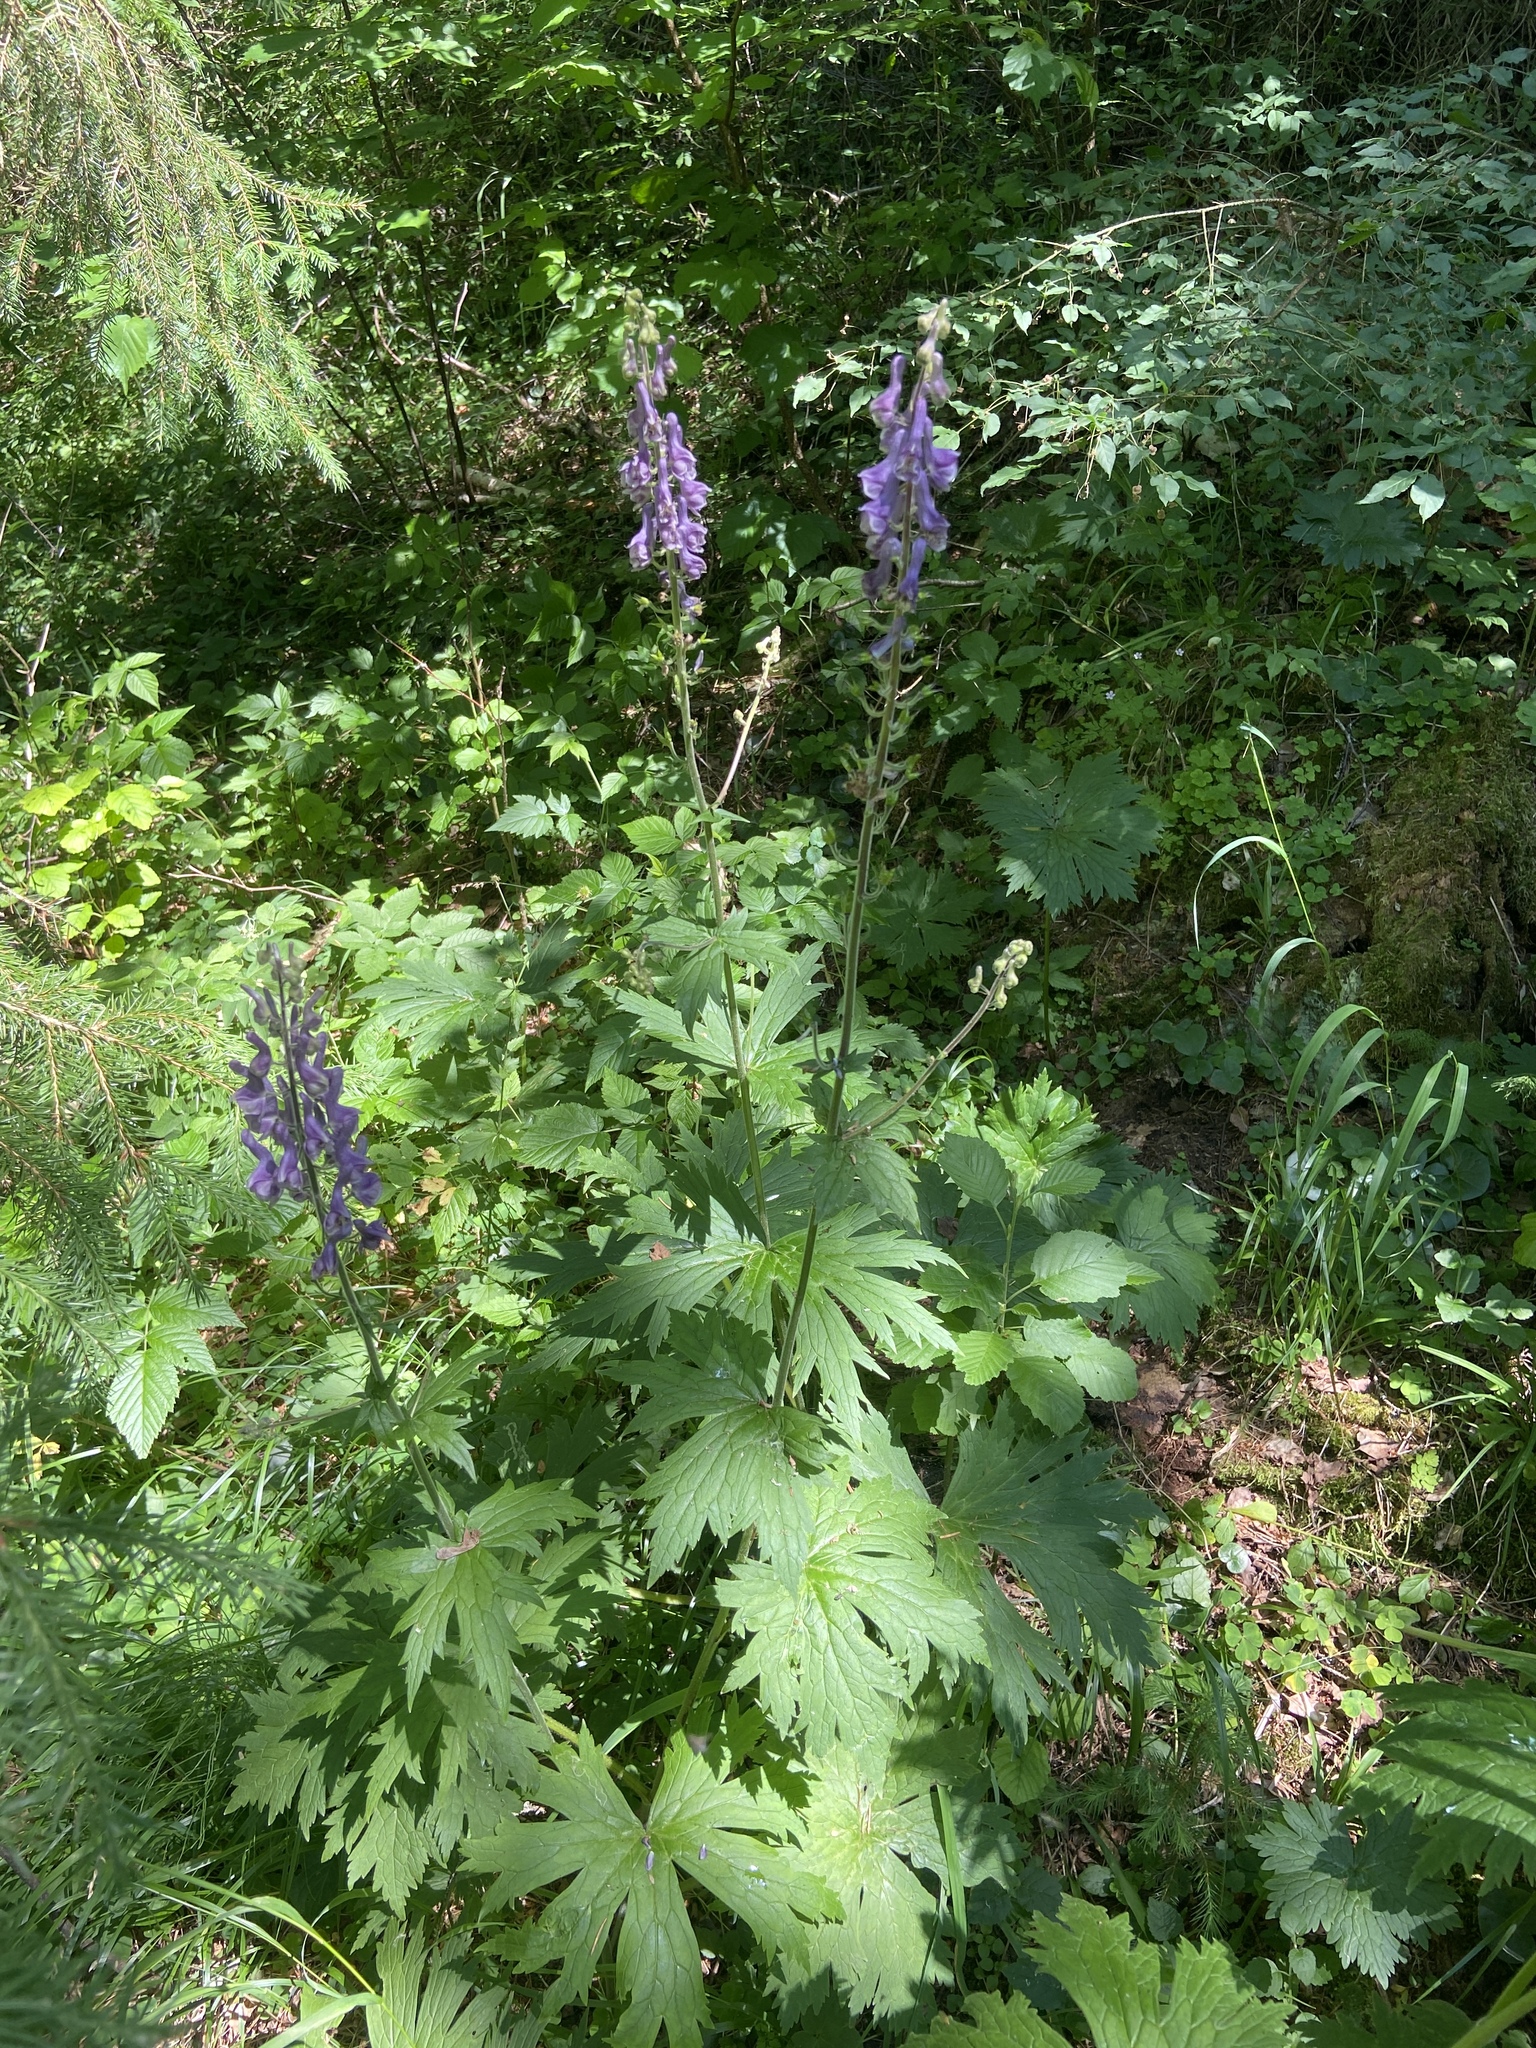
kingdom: Plantae
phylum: Tracheophyta
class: Magnoliopsida
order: Ranunculales
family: Ranunculaceae
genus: Aconitum
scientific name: Aconitum septentrionale
